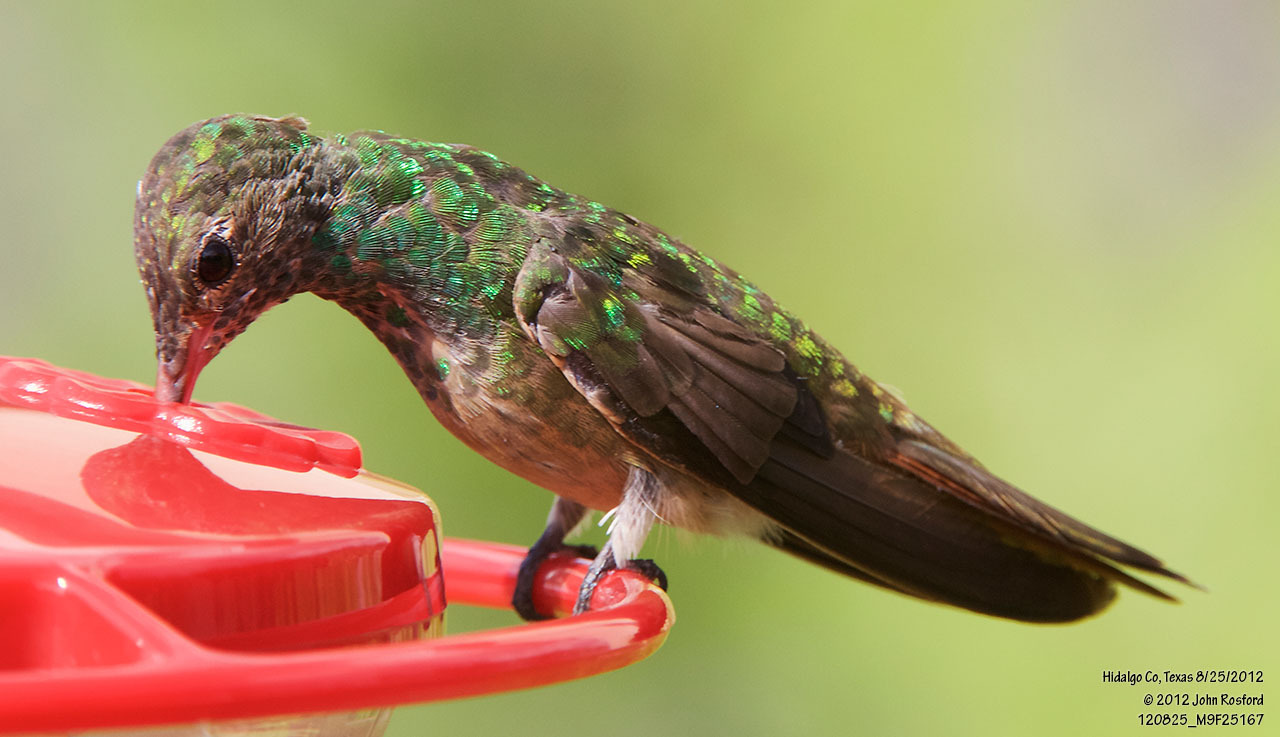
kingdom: Animalia
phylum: Chordata
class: Aves
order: Apodiformes
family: Trochilidae
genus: Amazilia
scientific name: Amazilia yucatanensis
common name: Buff-bellied hummingbird
